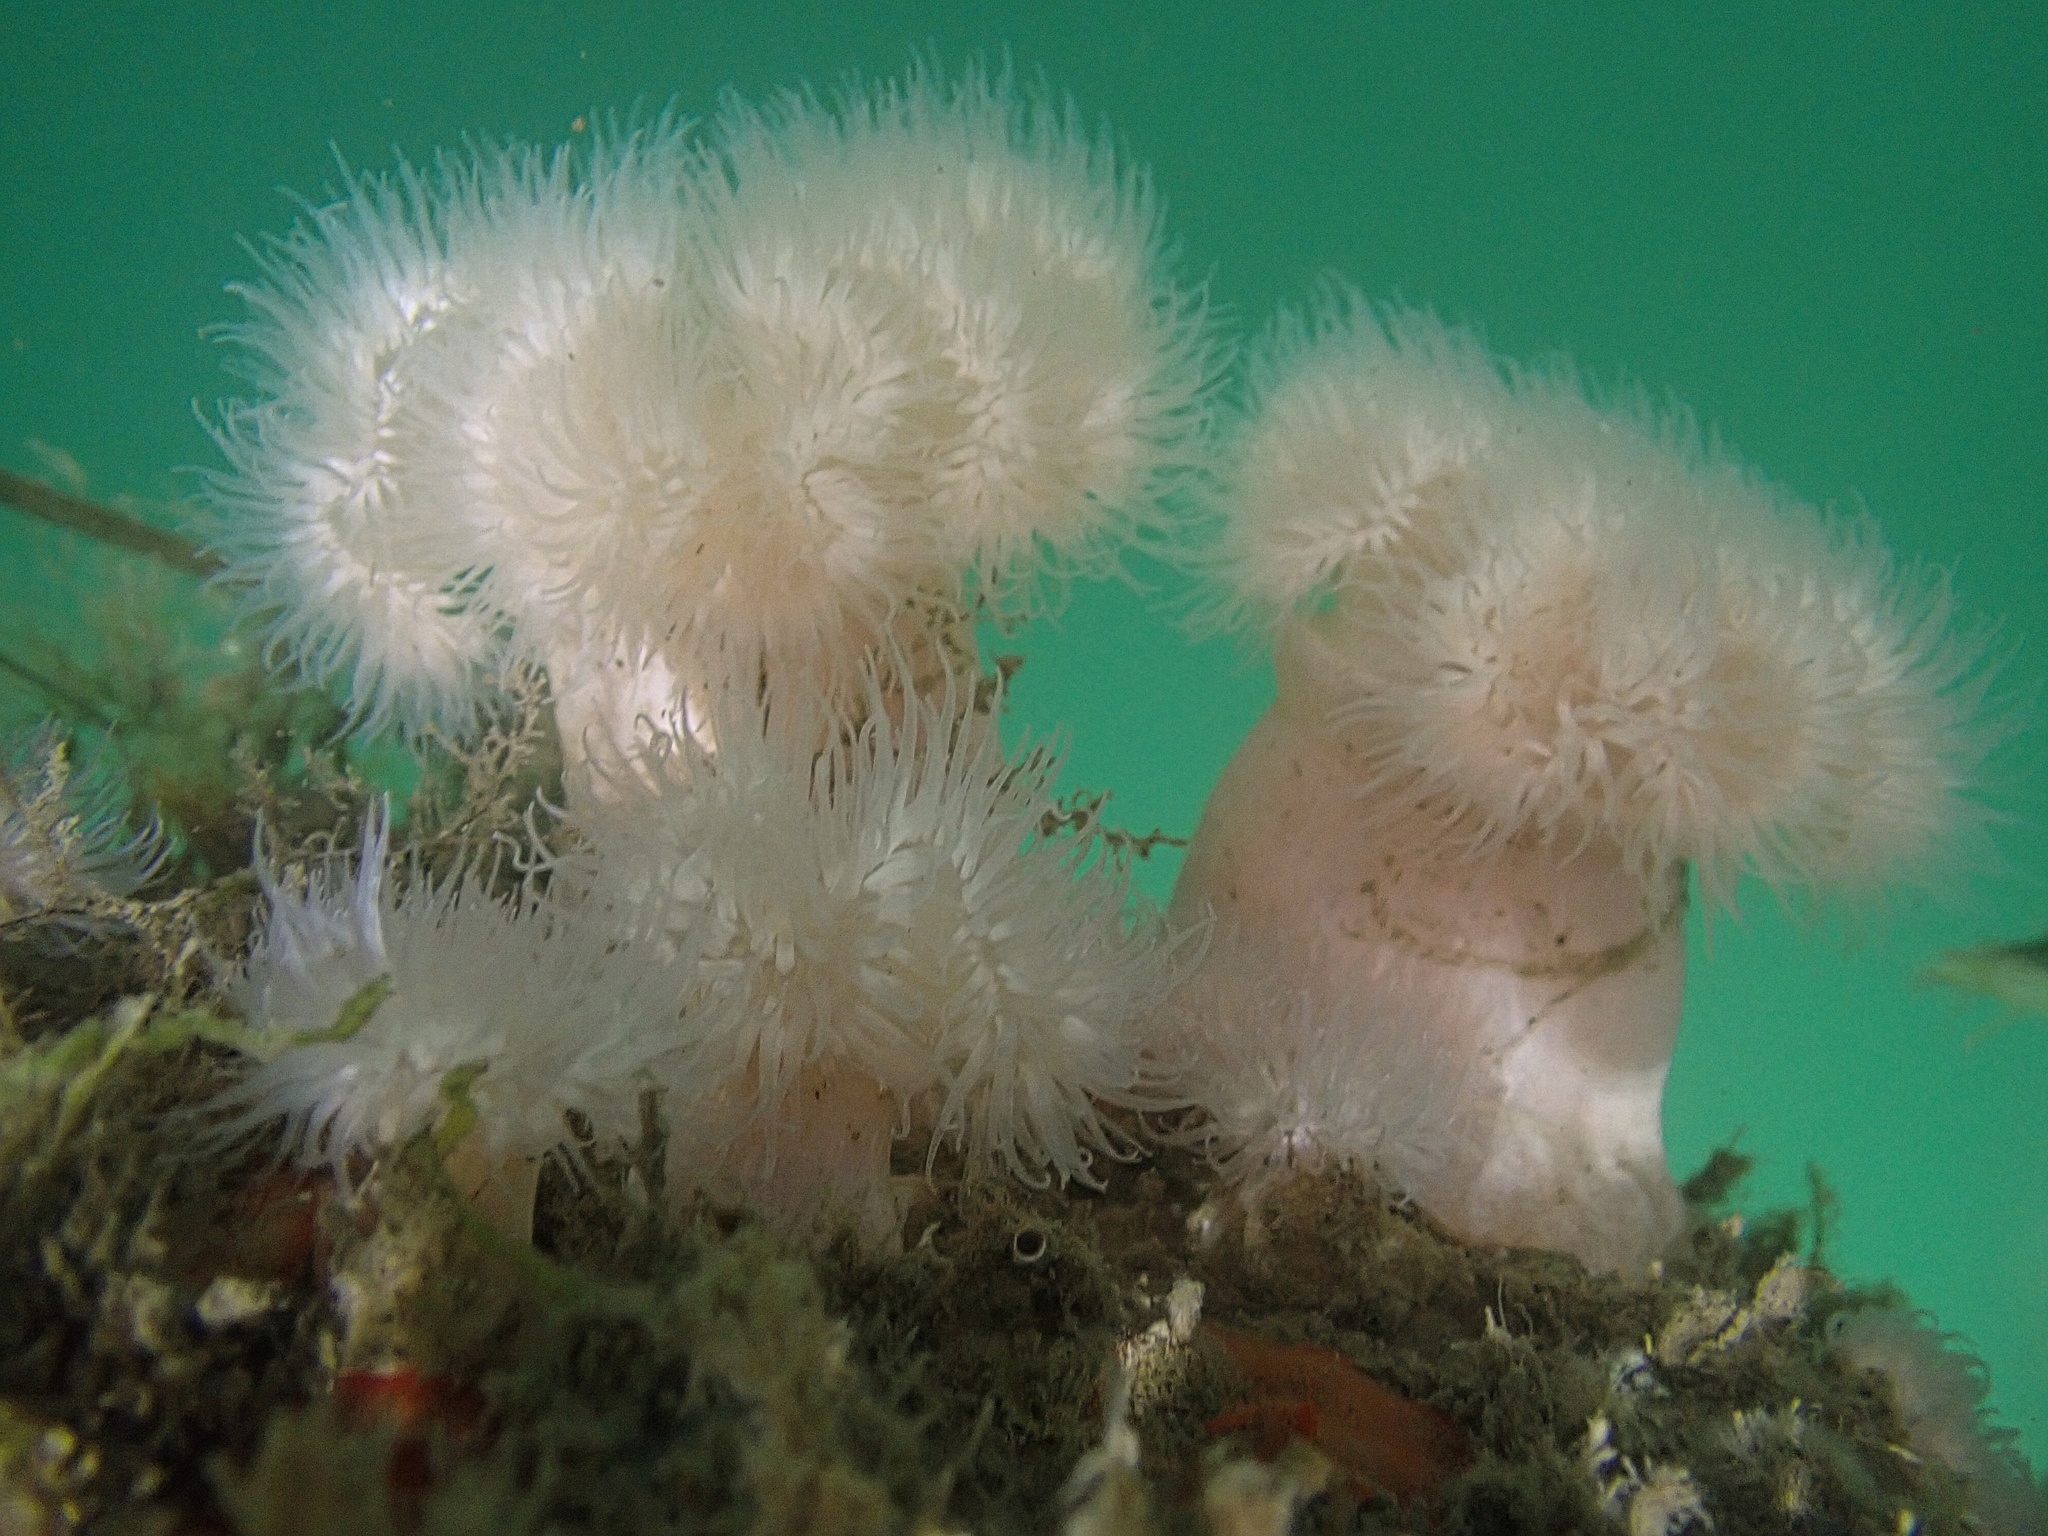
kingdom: Animalia
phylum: Cnidaria
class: Anthozoa
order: Actiniaria
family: Metridiidae
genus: Metridium
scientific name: Metridium senile
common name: Clonal plumose anemone
